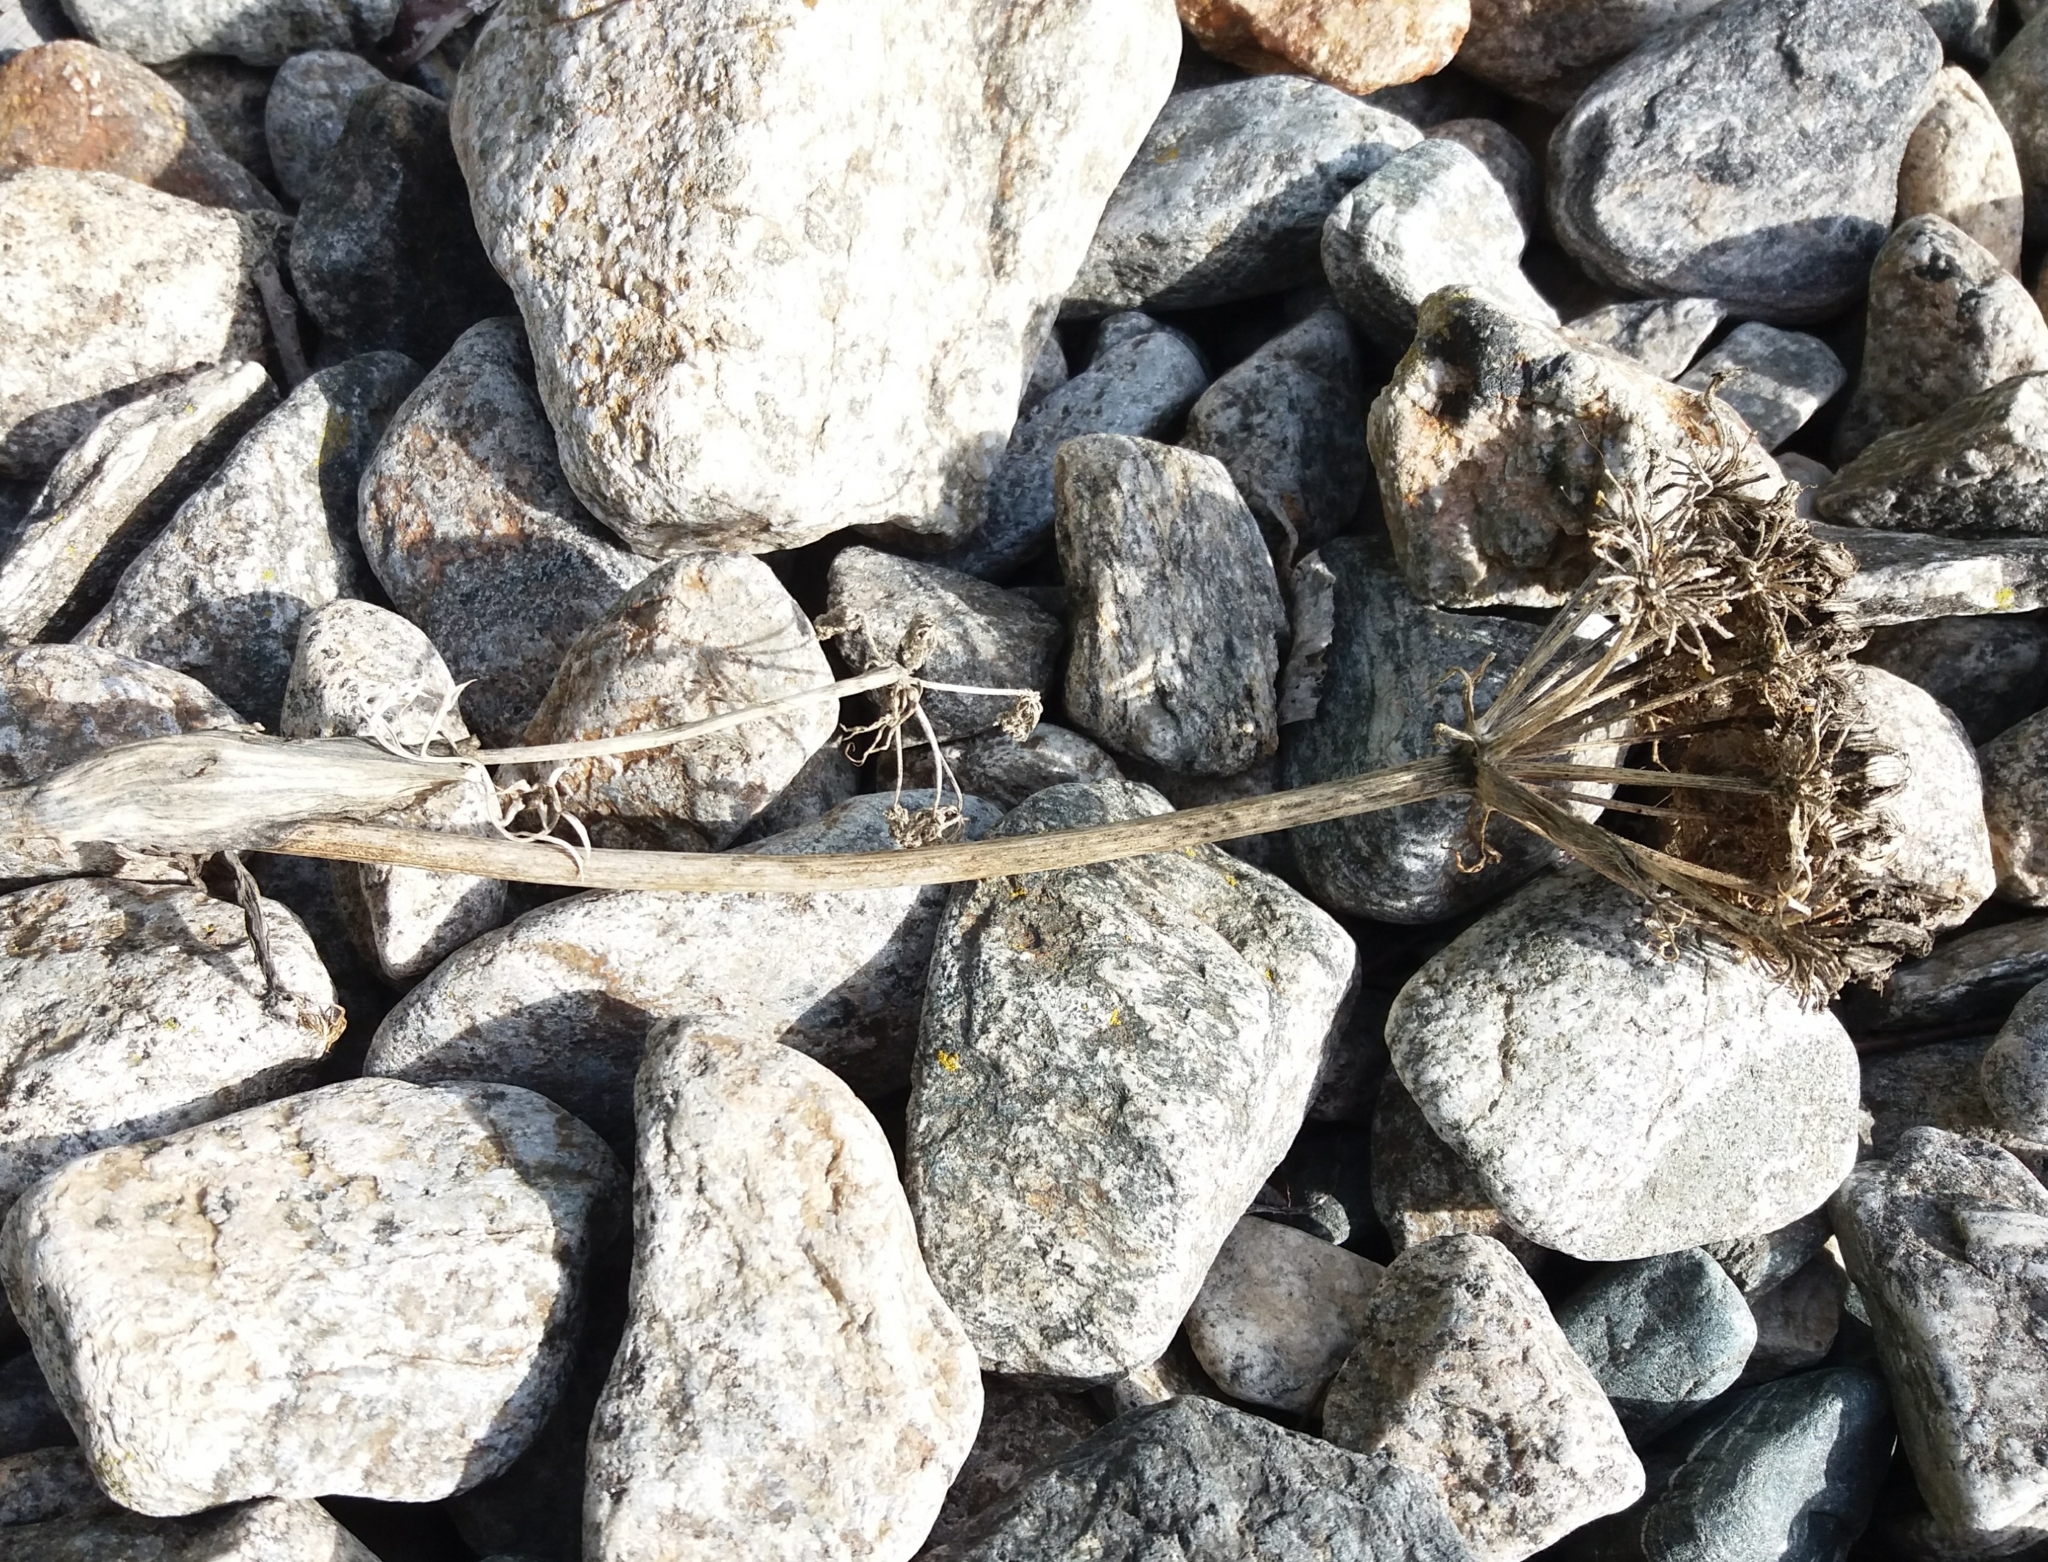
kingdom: Plantae
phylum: Tracheophyta
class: Magnoliopsida
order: Apiales
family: Apiaceae
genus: Phlojodicarpus
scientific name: Phlojodicarpus sibiricus
